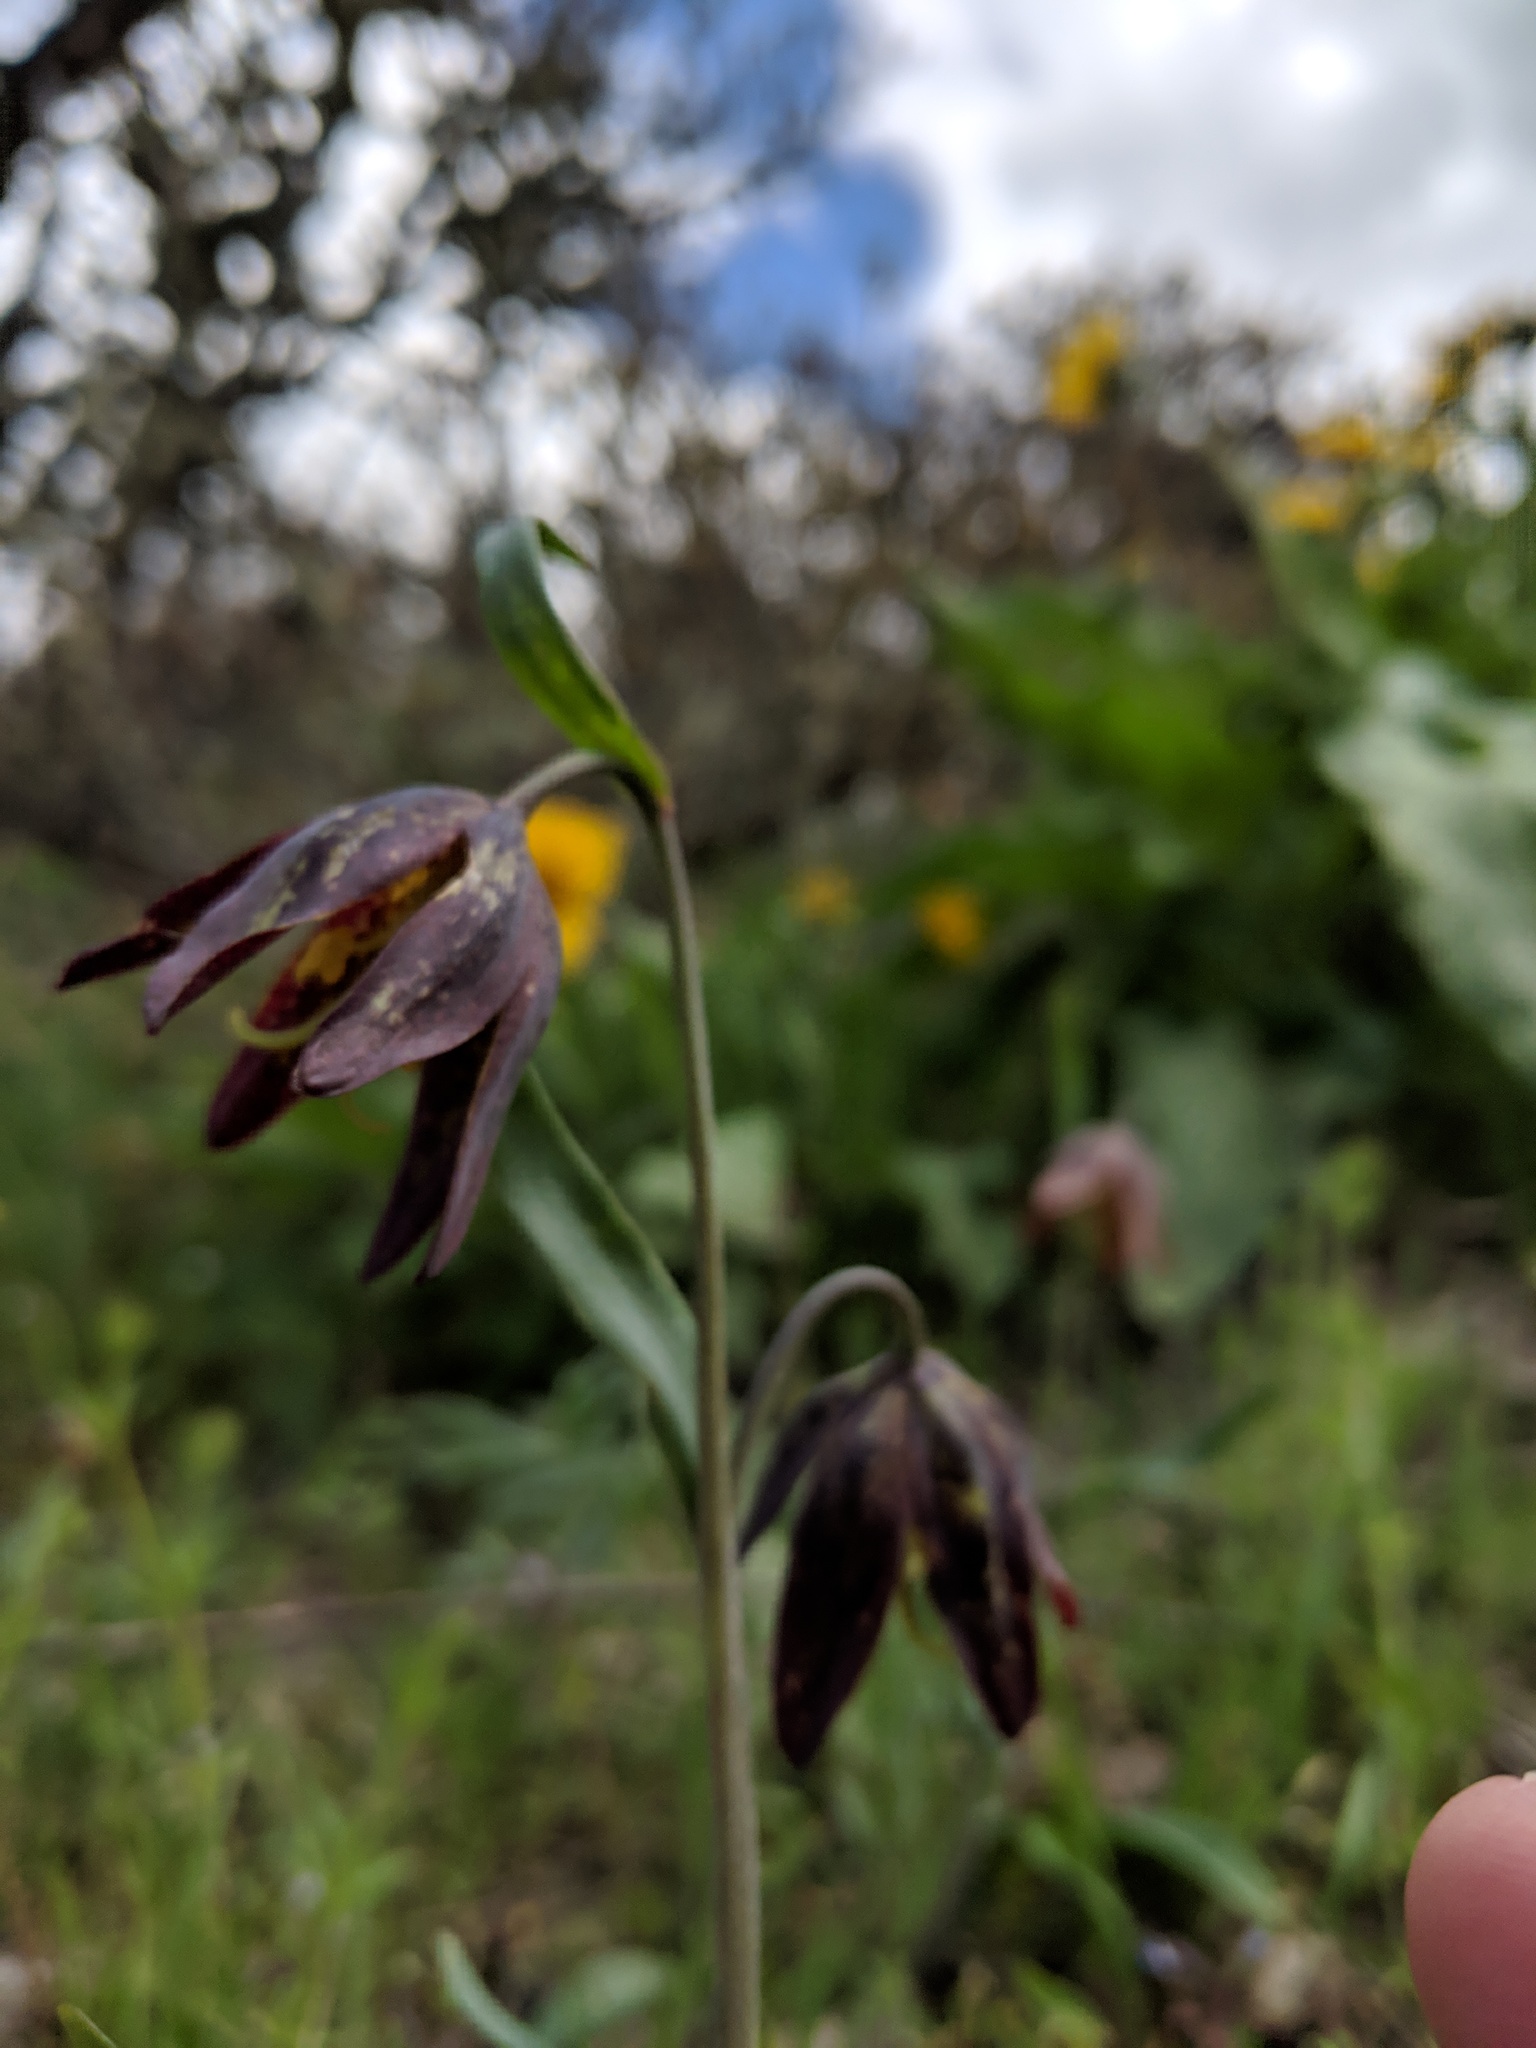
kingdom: Plantae
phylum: Tracheophyta
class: Liliopsida
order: Liliales
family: Liliaceae
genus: Fritillaria
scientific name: Fritillaria affinis
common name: Ojai fritillary
